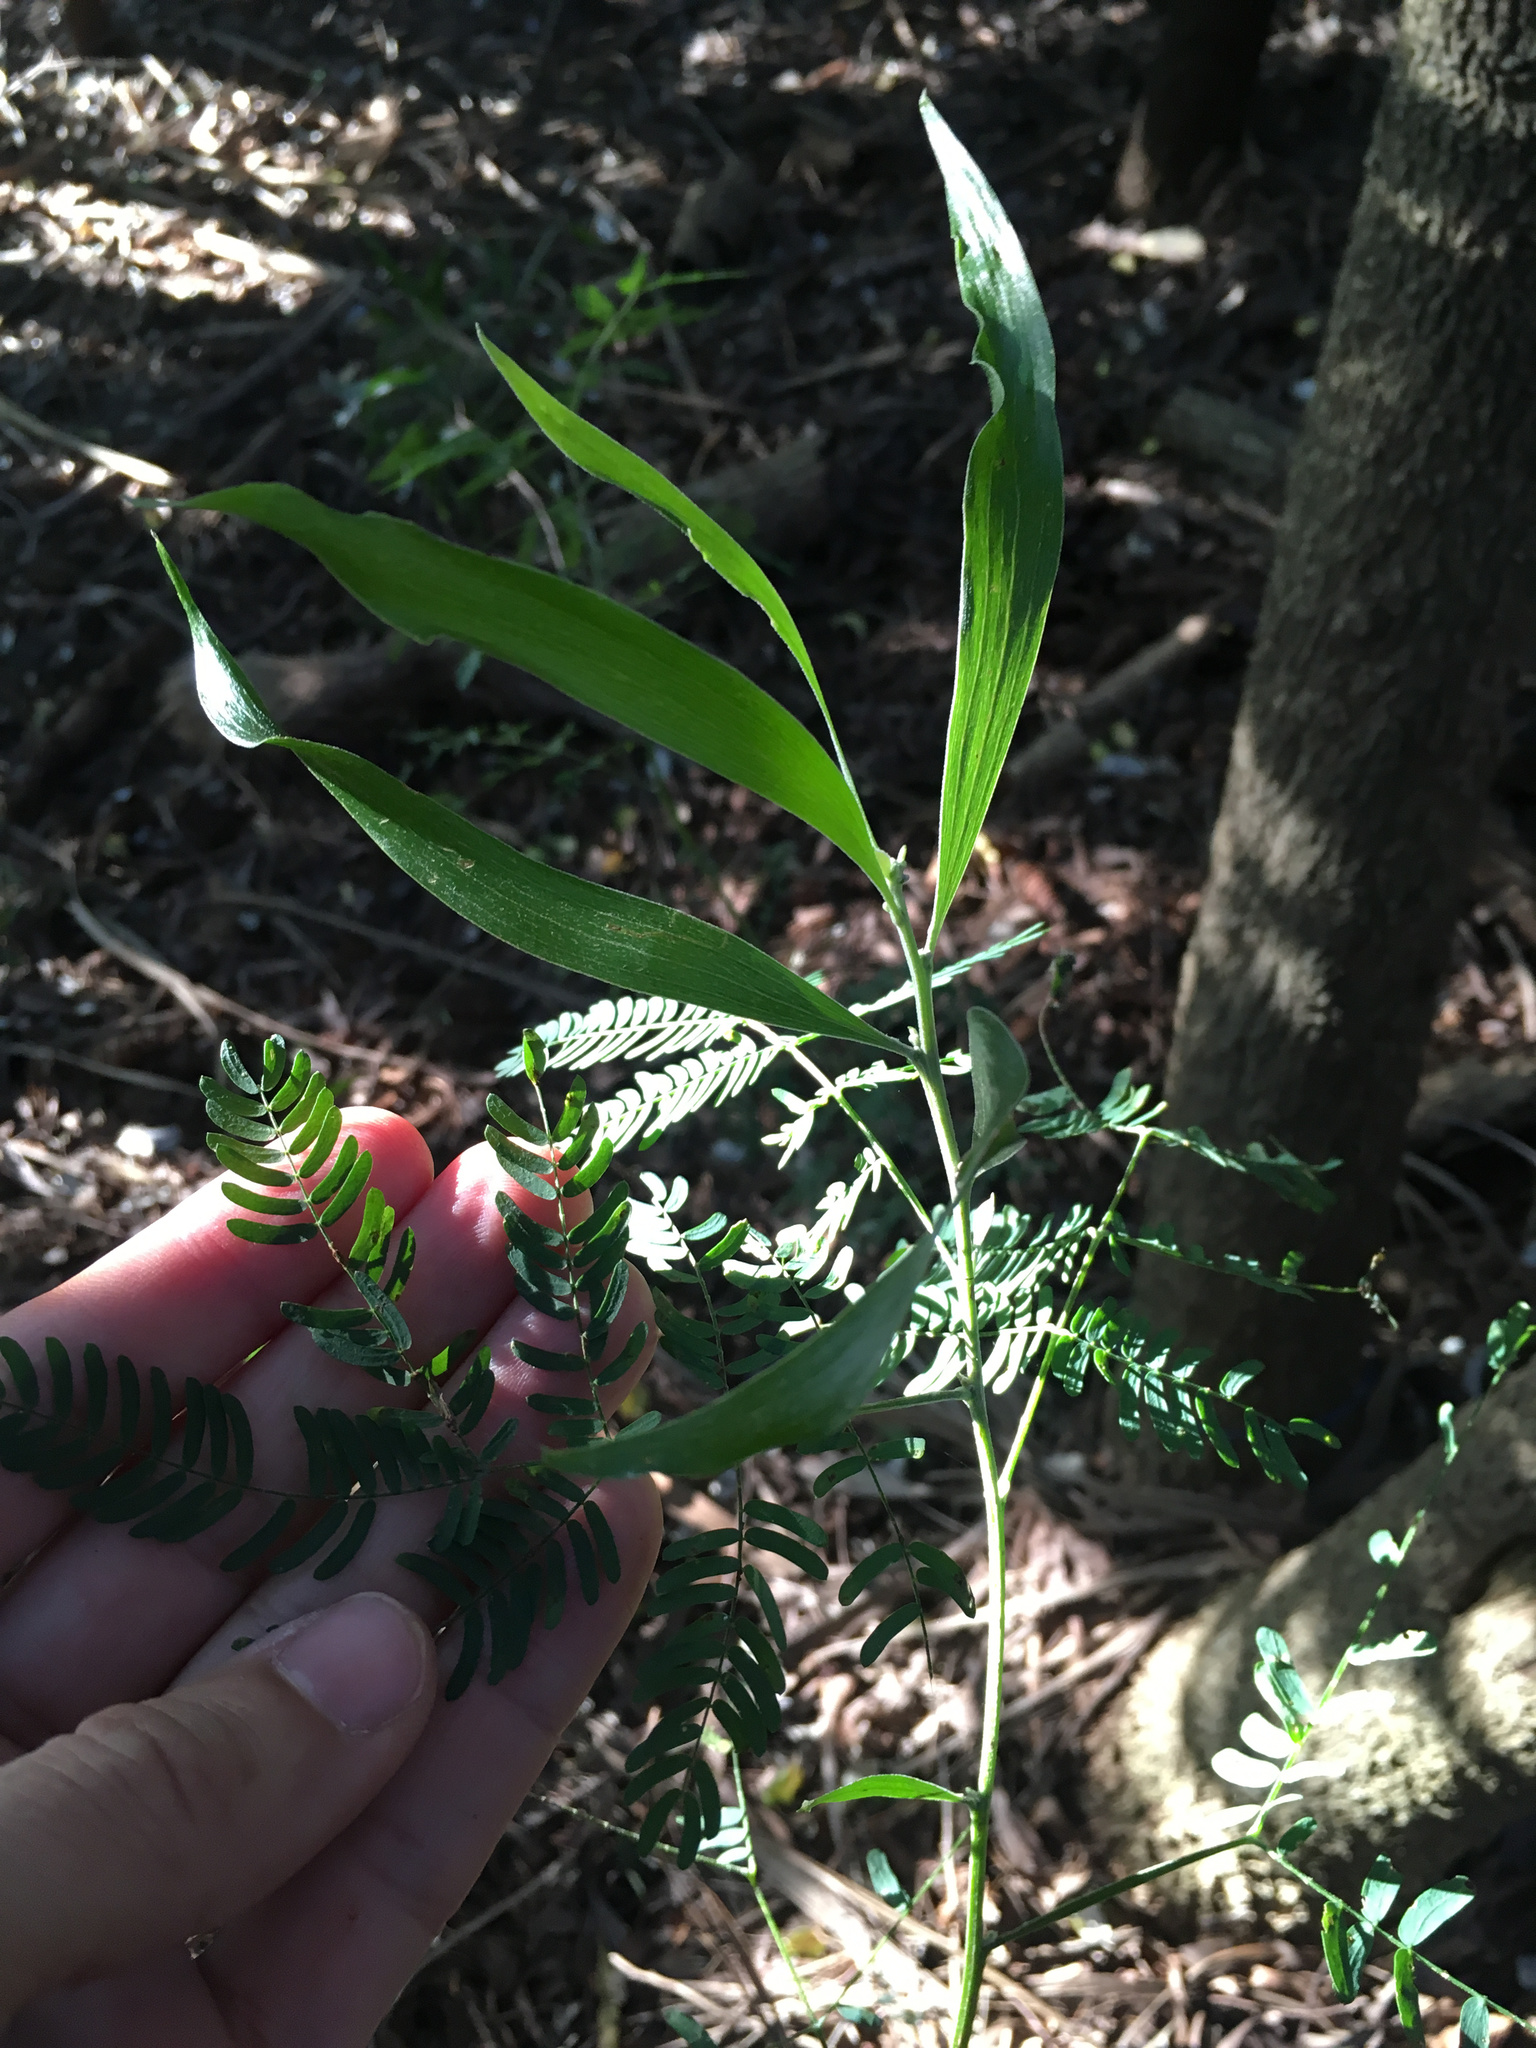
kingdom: Plantae
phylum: Tracheophyta
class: Magnoliopsida
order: Fabales
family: Fabaceae
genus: Acacia
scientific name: Acacia melanoxylon
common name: Blackwood
